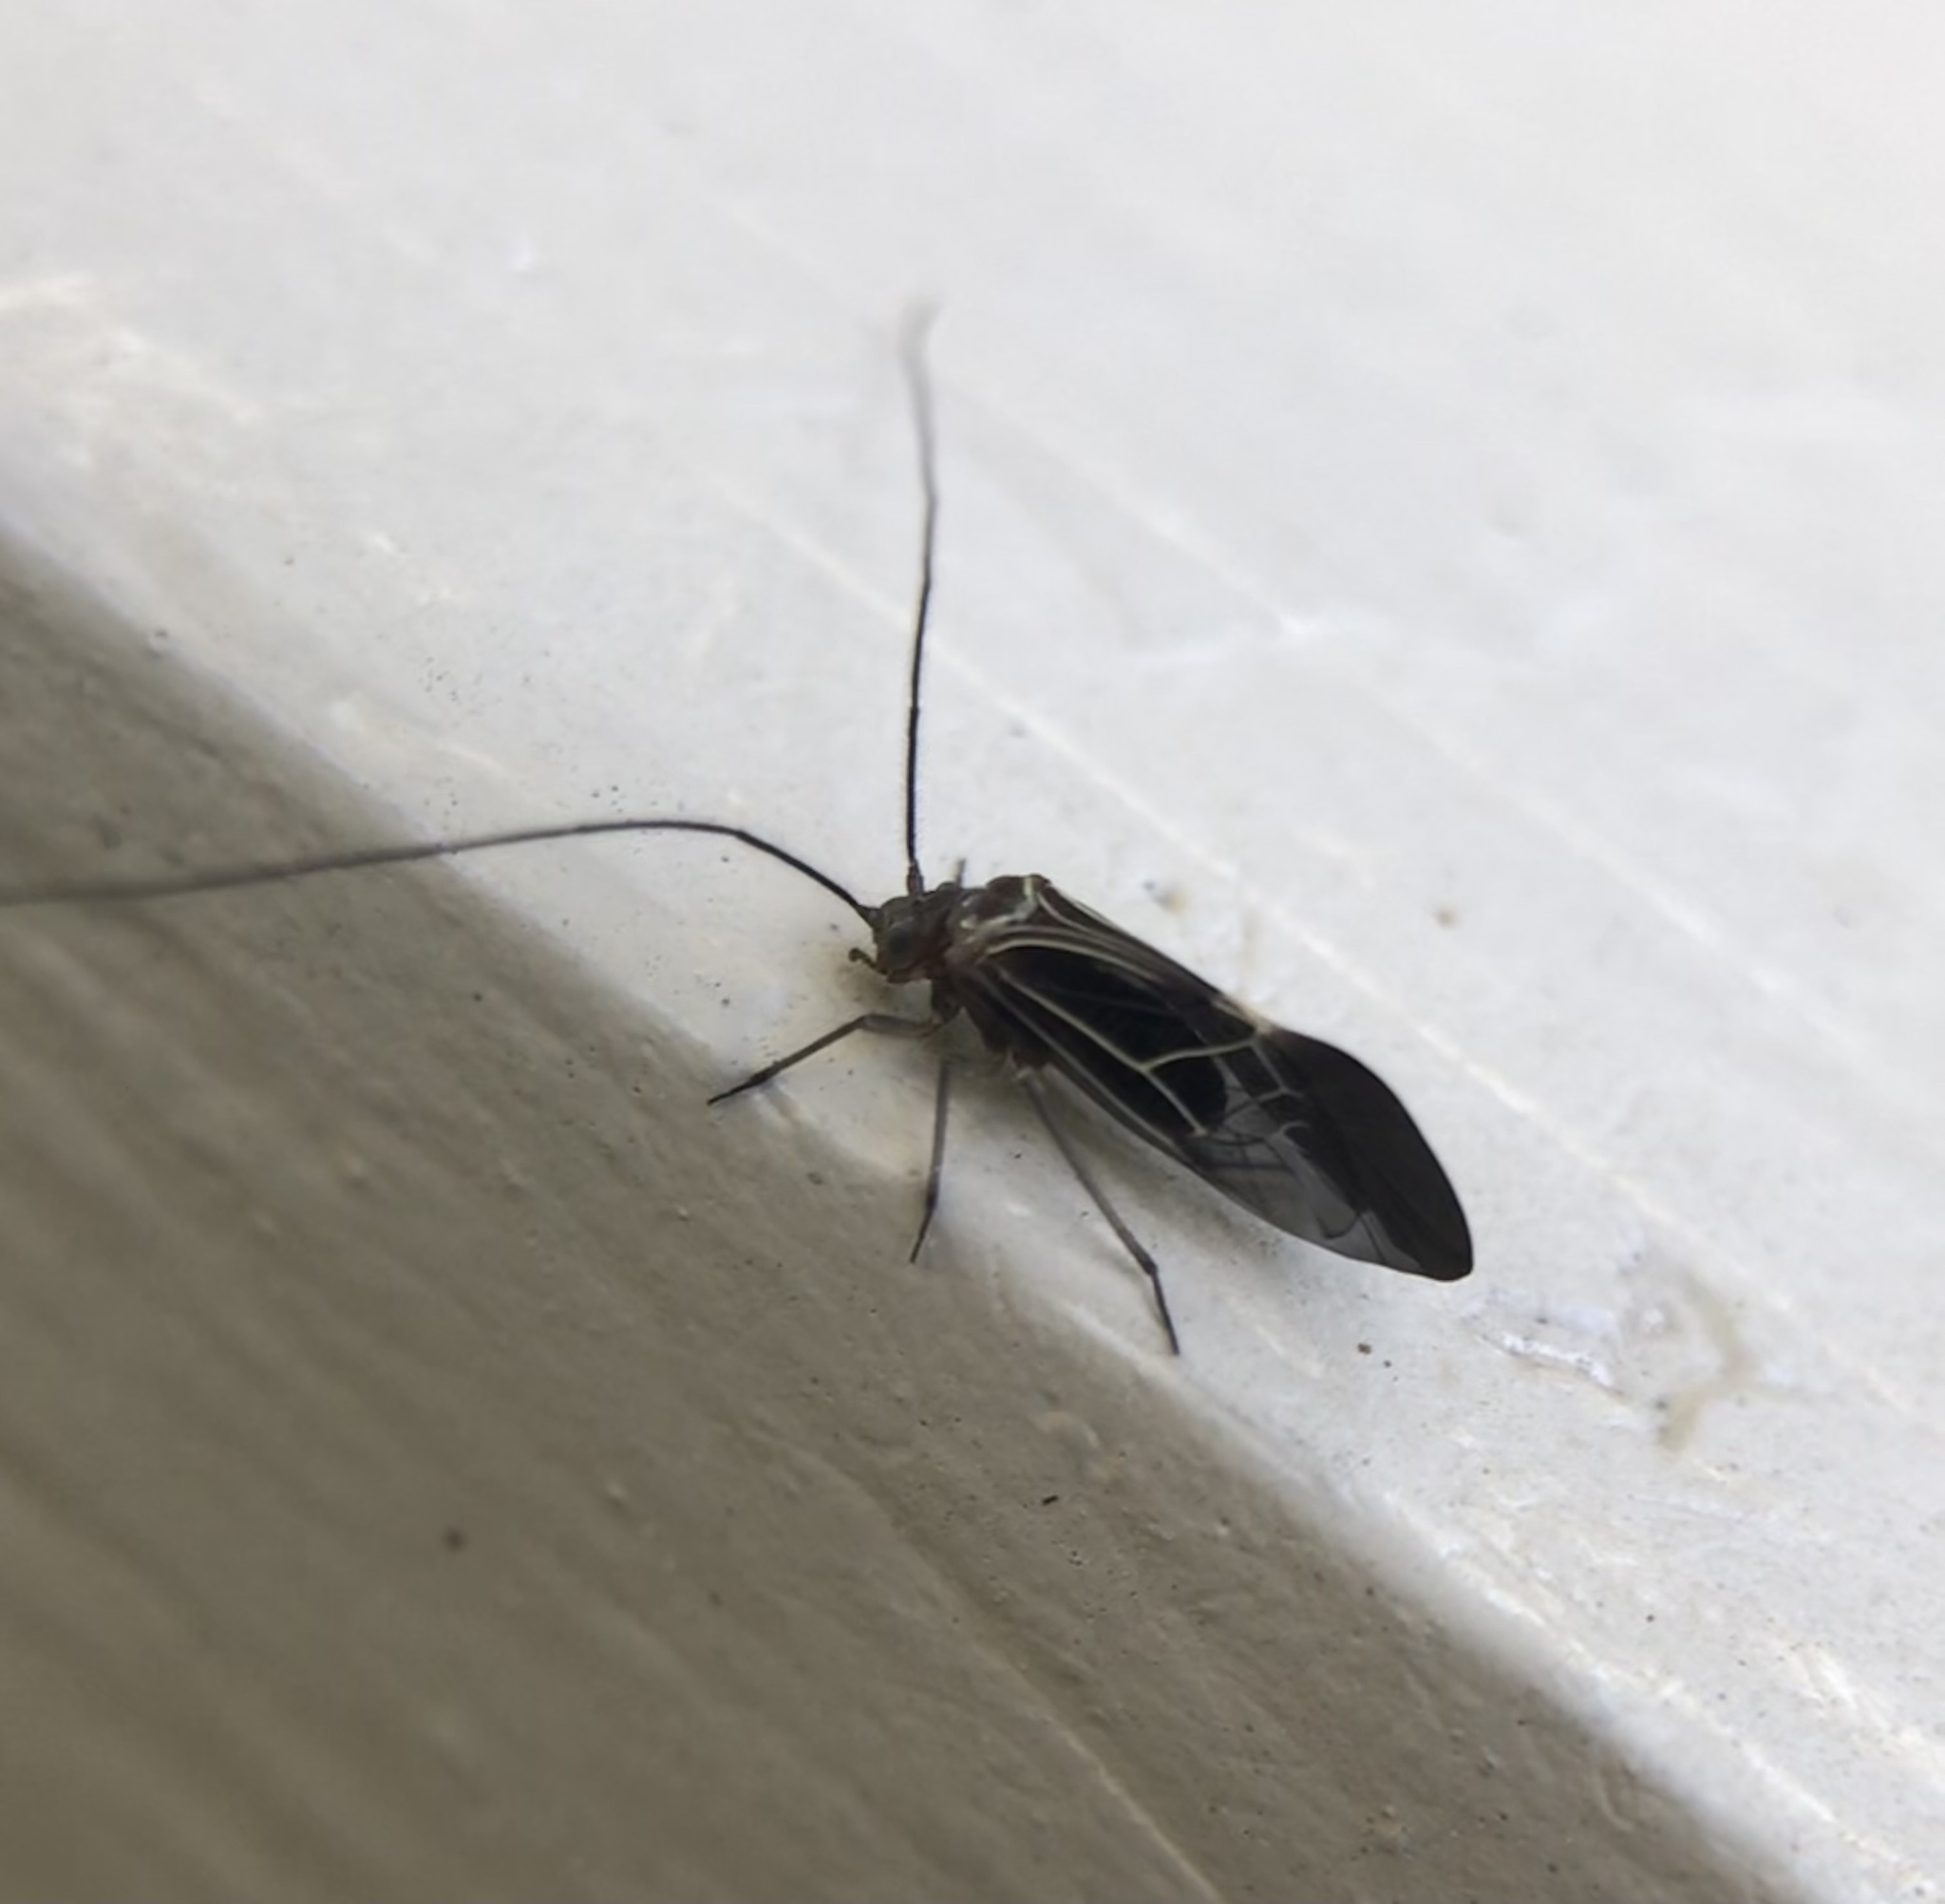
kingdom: Animalia
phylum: Arthropoda
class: Insecta
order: Psocodea
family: Psocidae
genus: Cerastipsocus
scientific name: Cerastipsocus venosus
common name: Tree cattle
